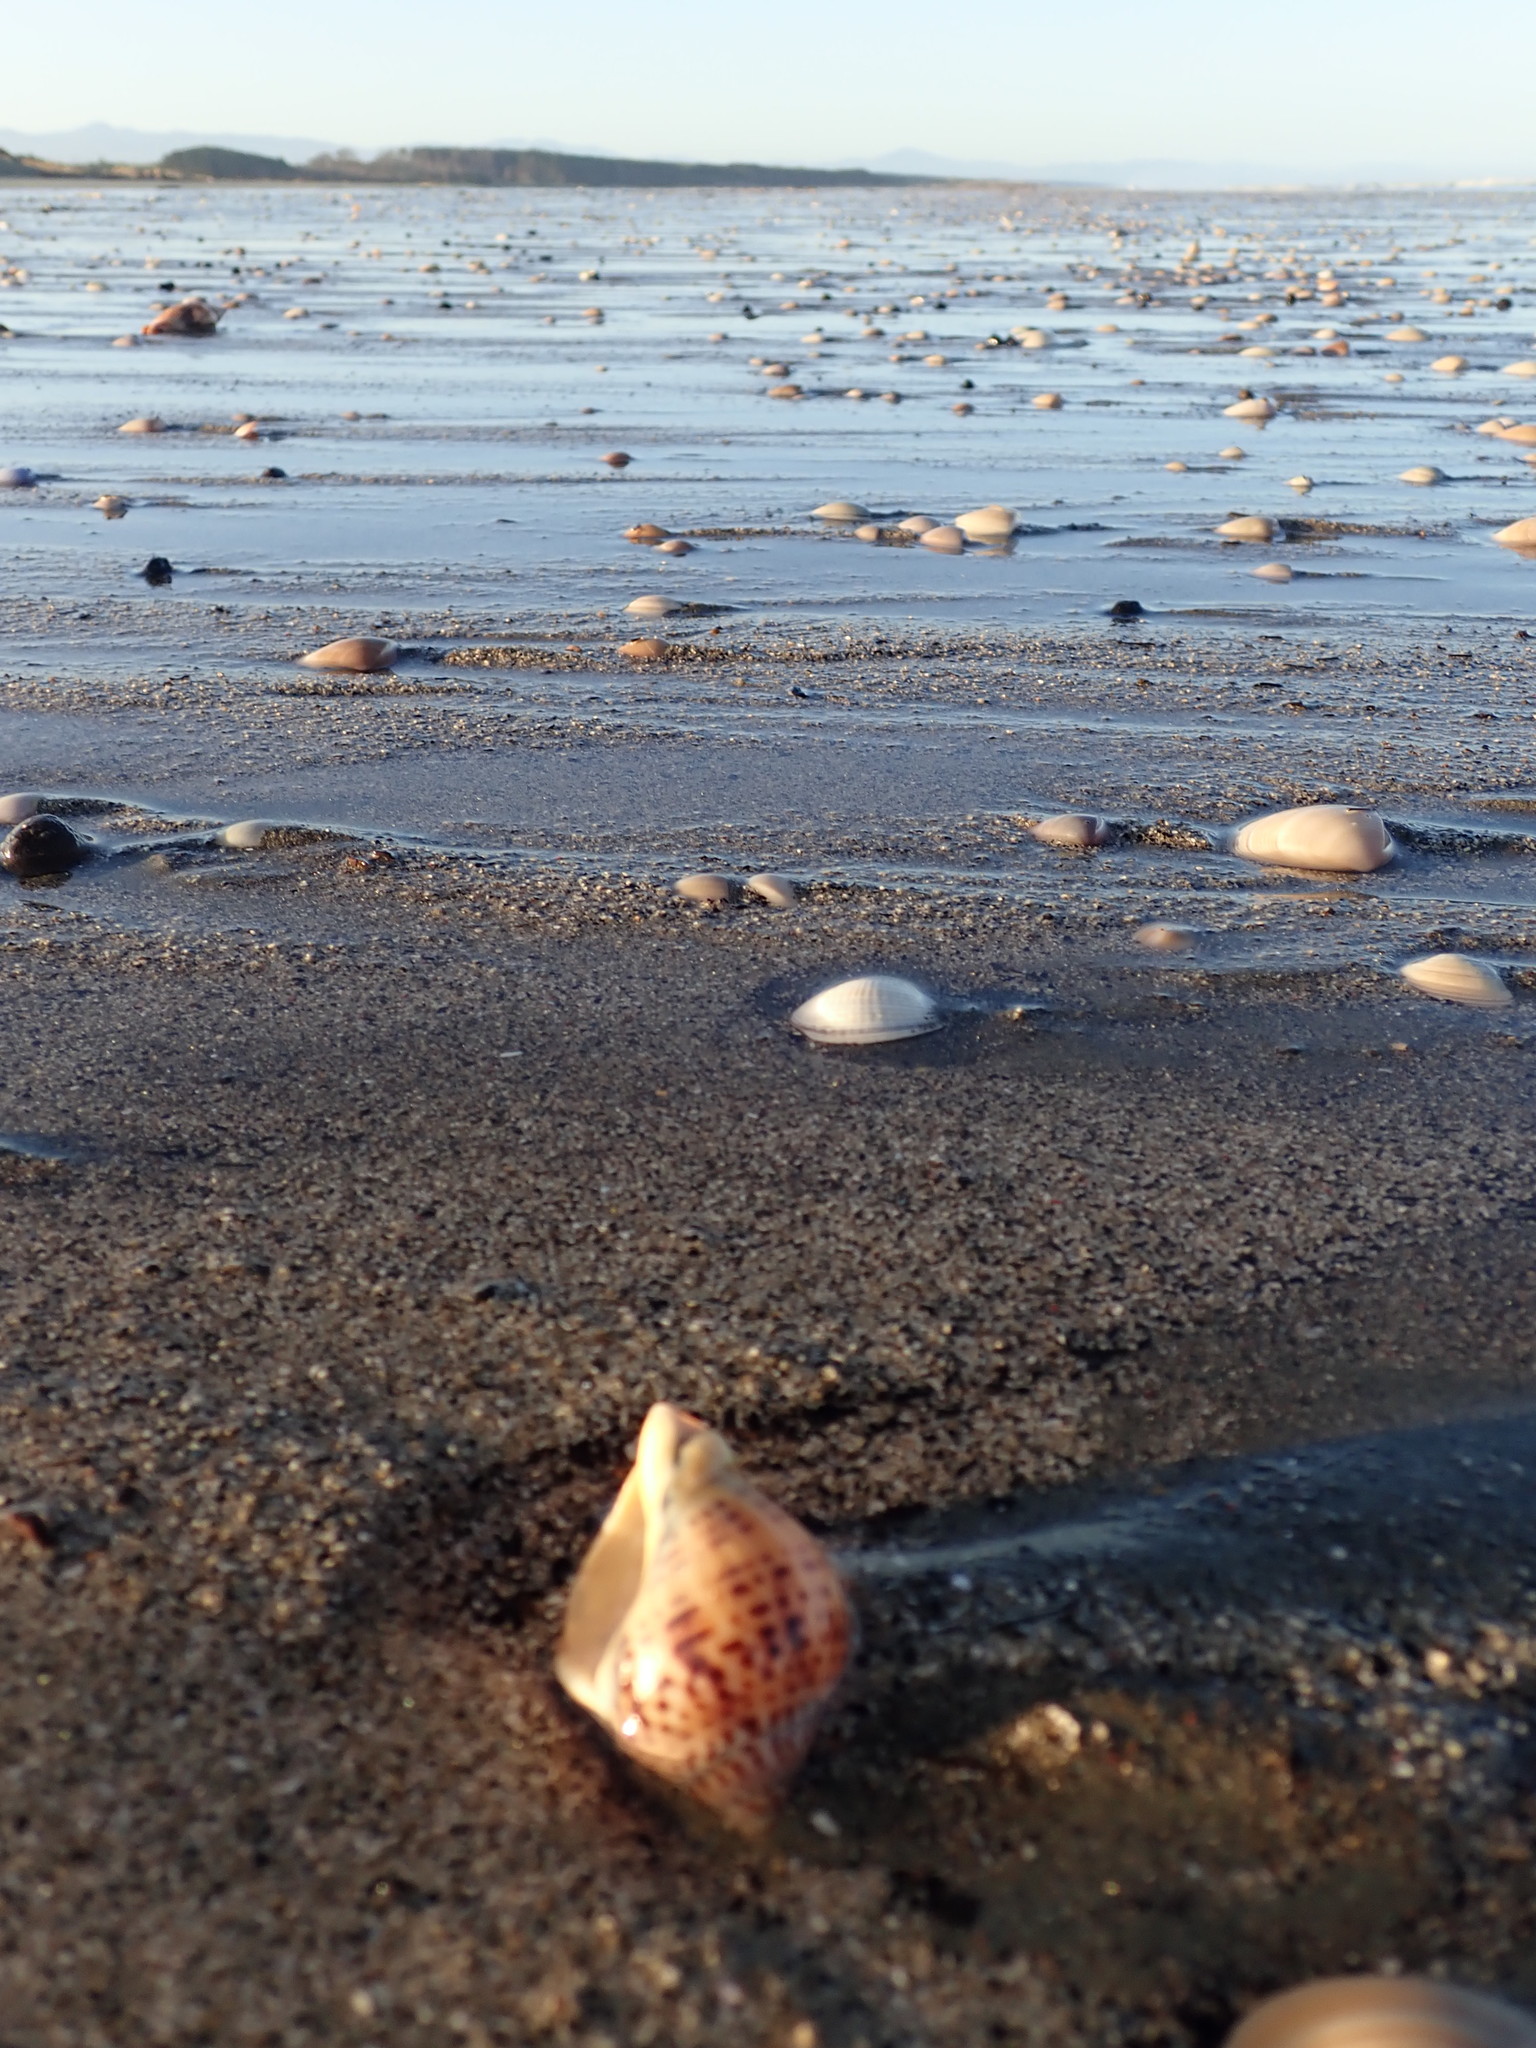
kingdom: Animalia
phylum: Mollusca
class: Gastropoda
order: Neogastropoda
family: Cominellidae
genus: Cominella
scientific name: Cominella adspersa
